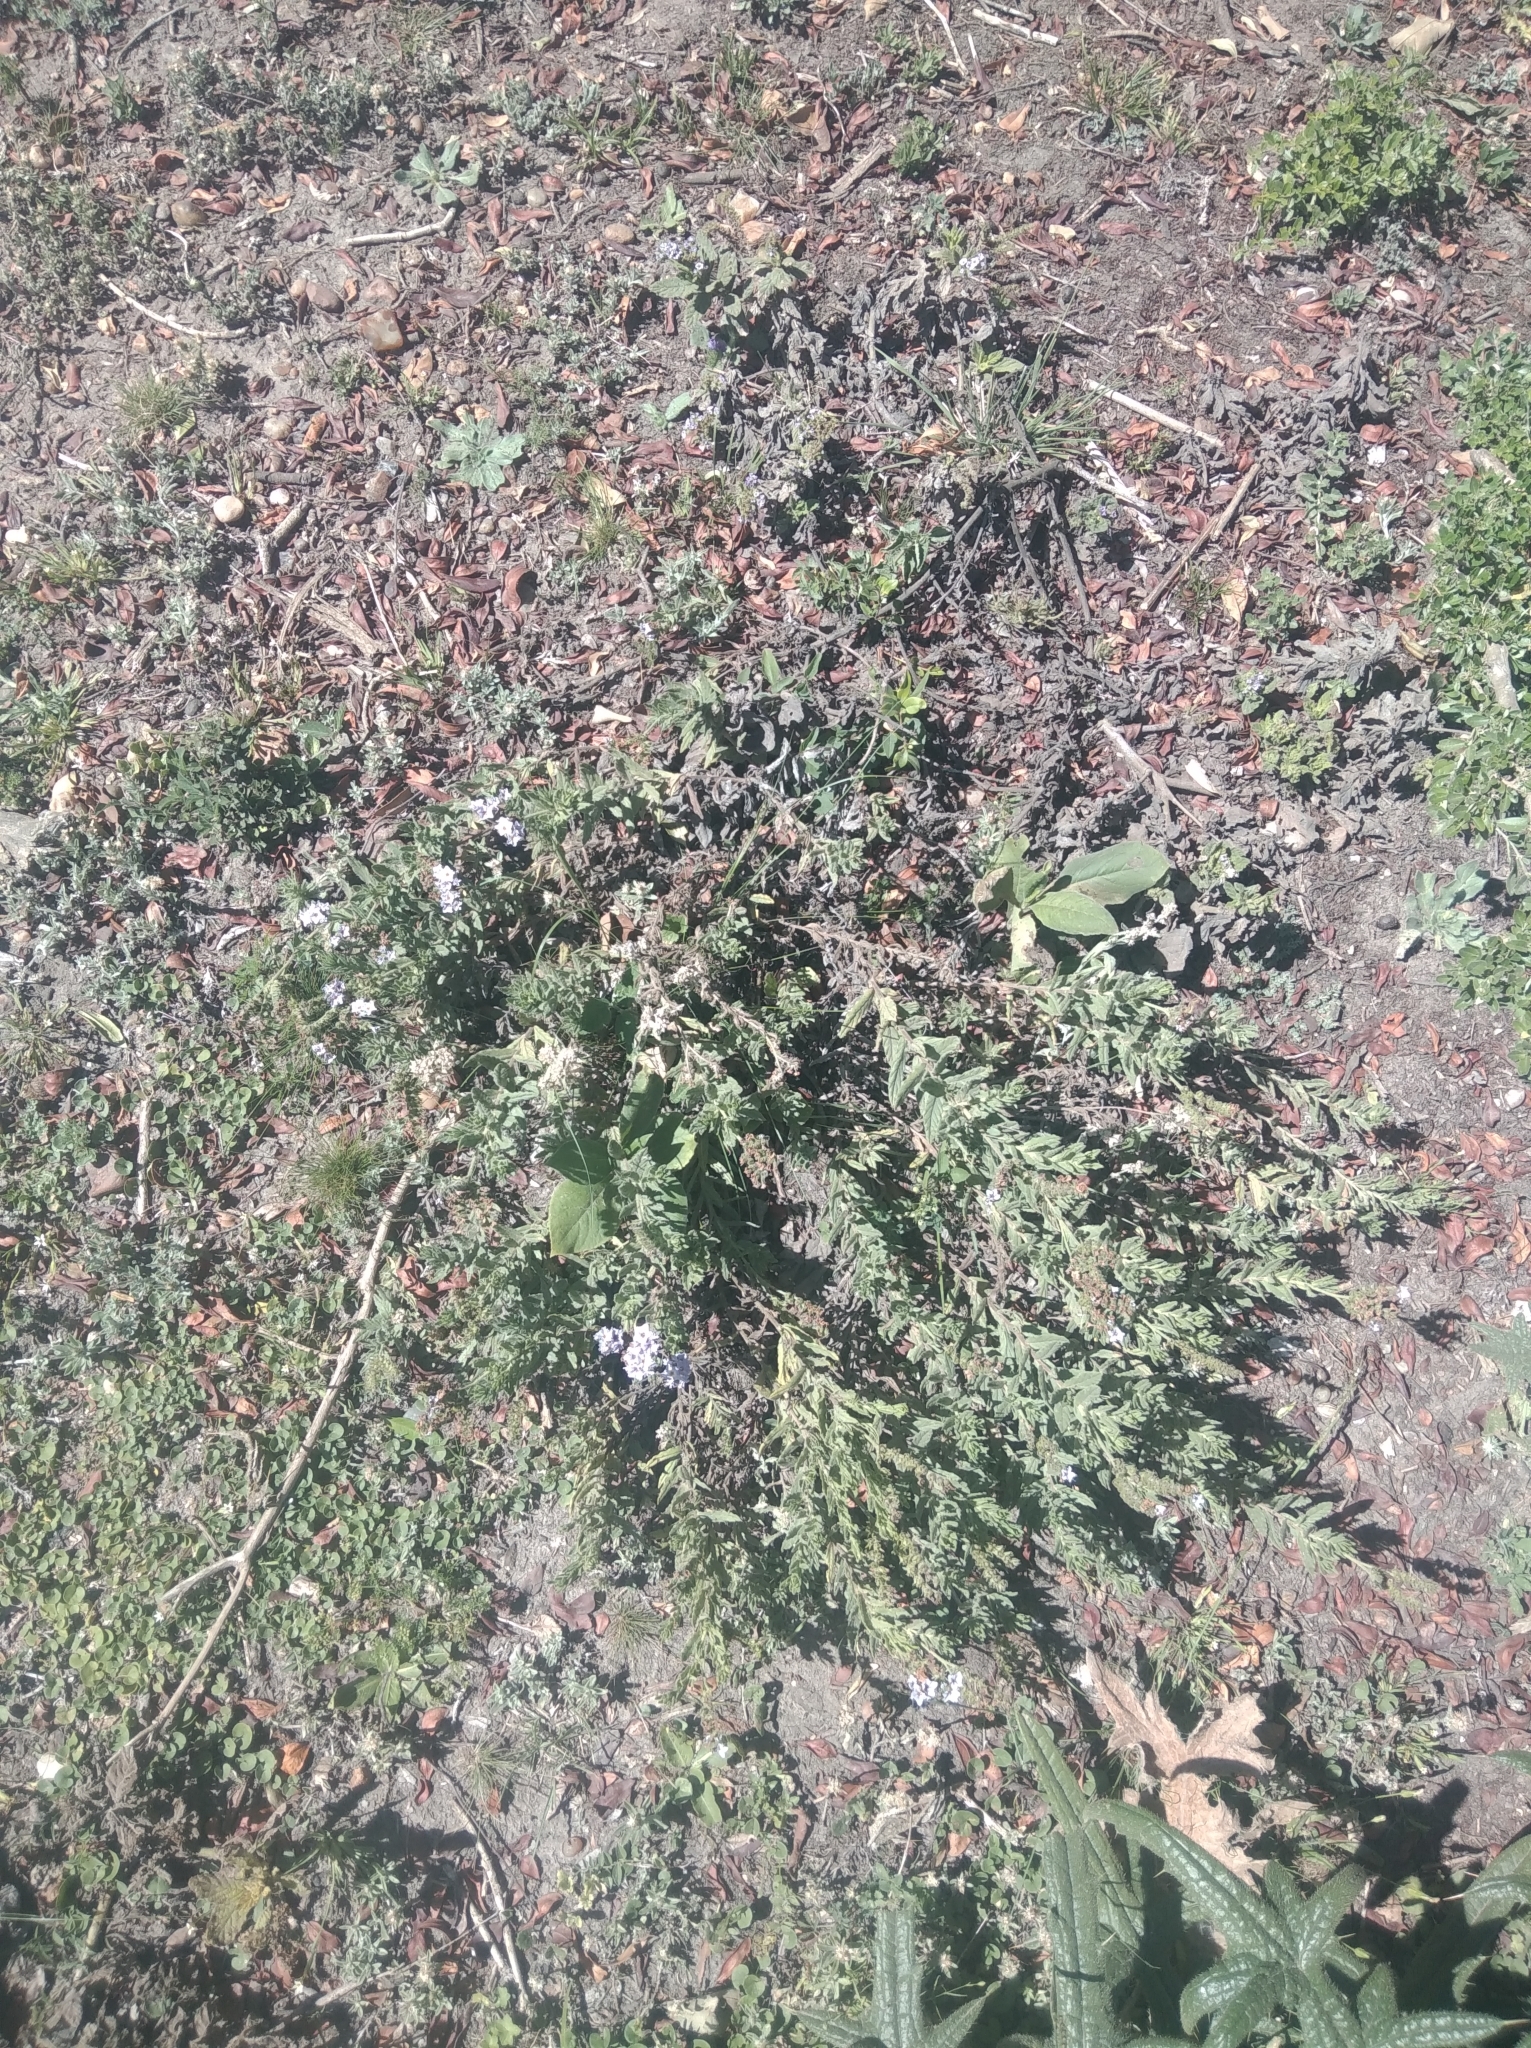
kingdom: Plantae
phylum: Tracheophyta
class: Magnoliopsida
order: Boraginales
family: Heliotropiaceae
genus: Heliotropium
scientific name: Heliotropium amplexicaule
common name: Clasping heliotrope
